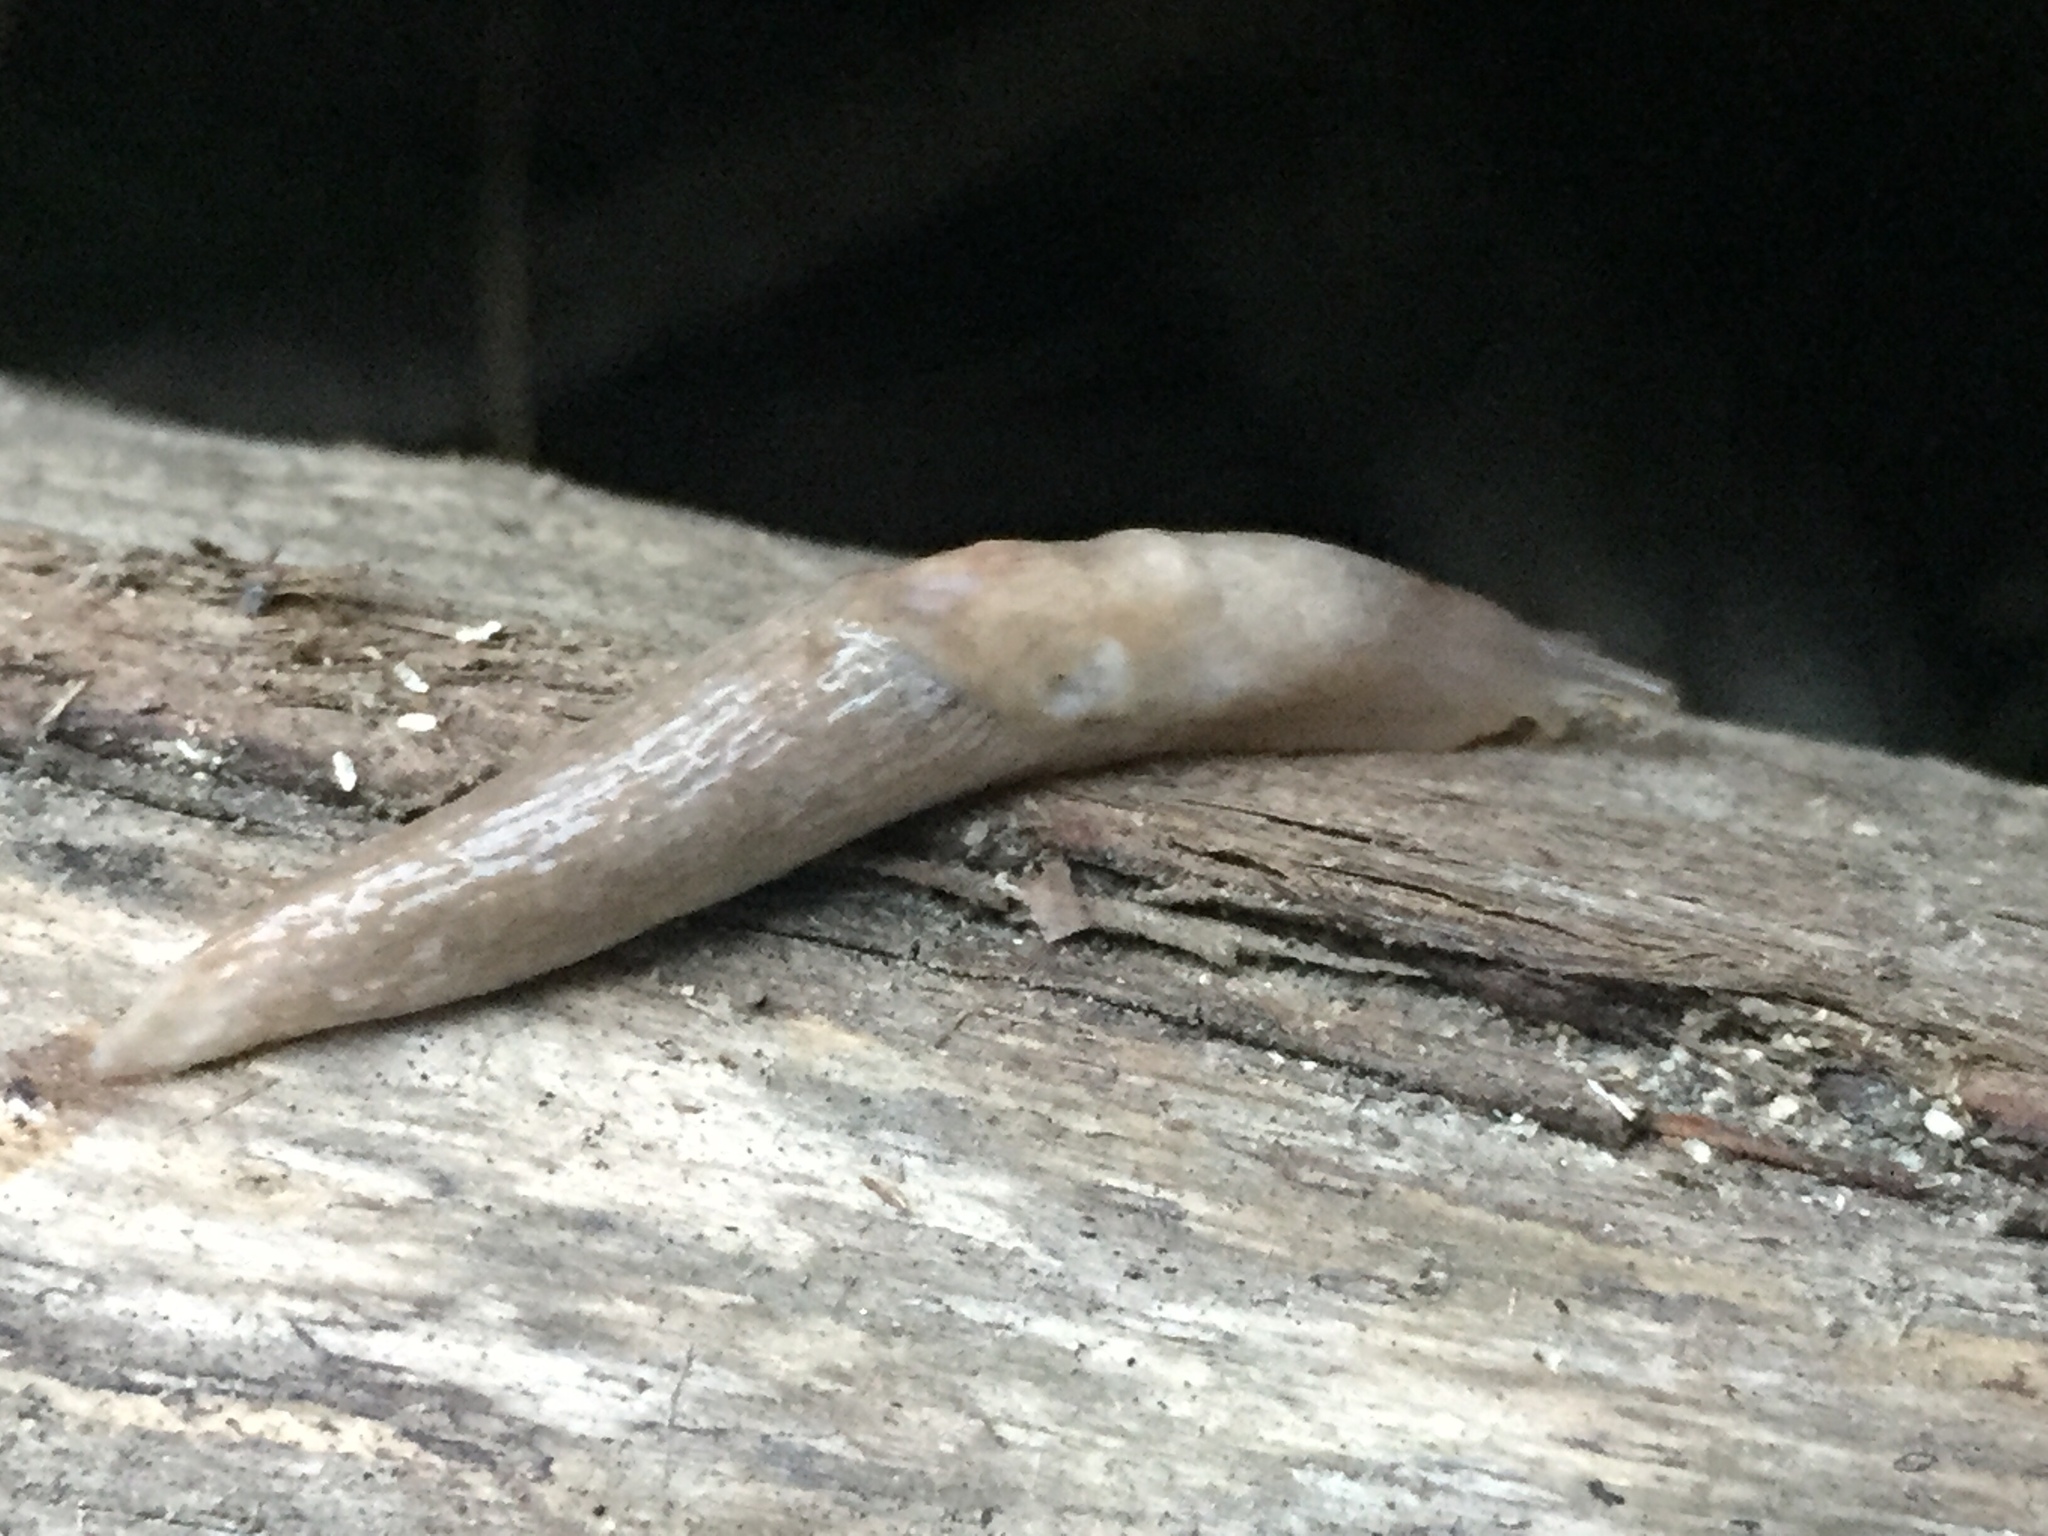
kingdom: Animalia
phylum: Mollusca
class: Gastropoda
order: Stylommatophora
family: Agriolimacidae
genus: Deroceras
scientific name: Deroceras reticulatum
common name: Gray field slug
